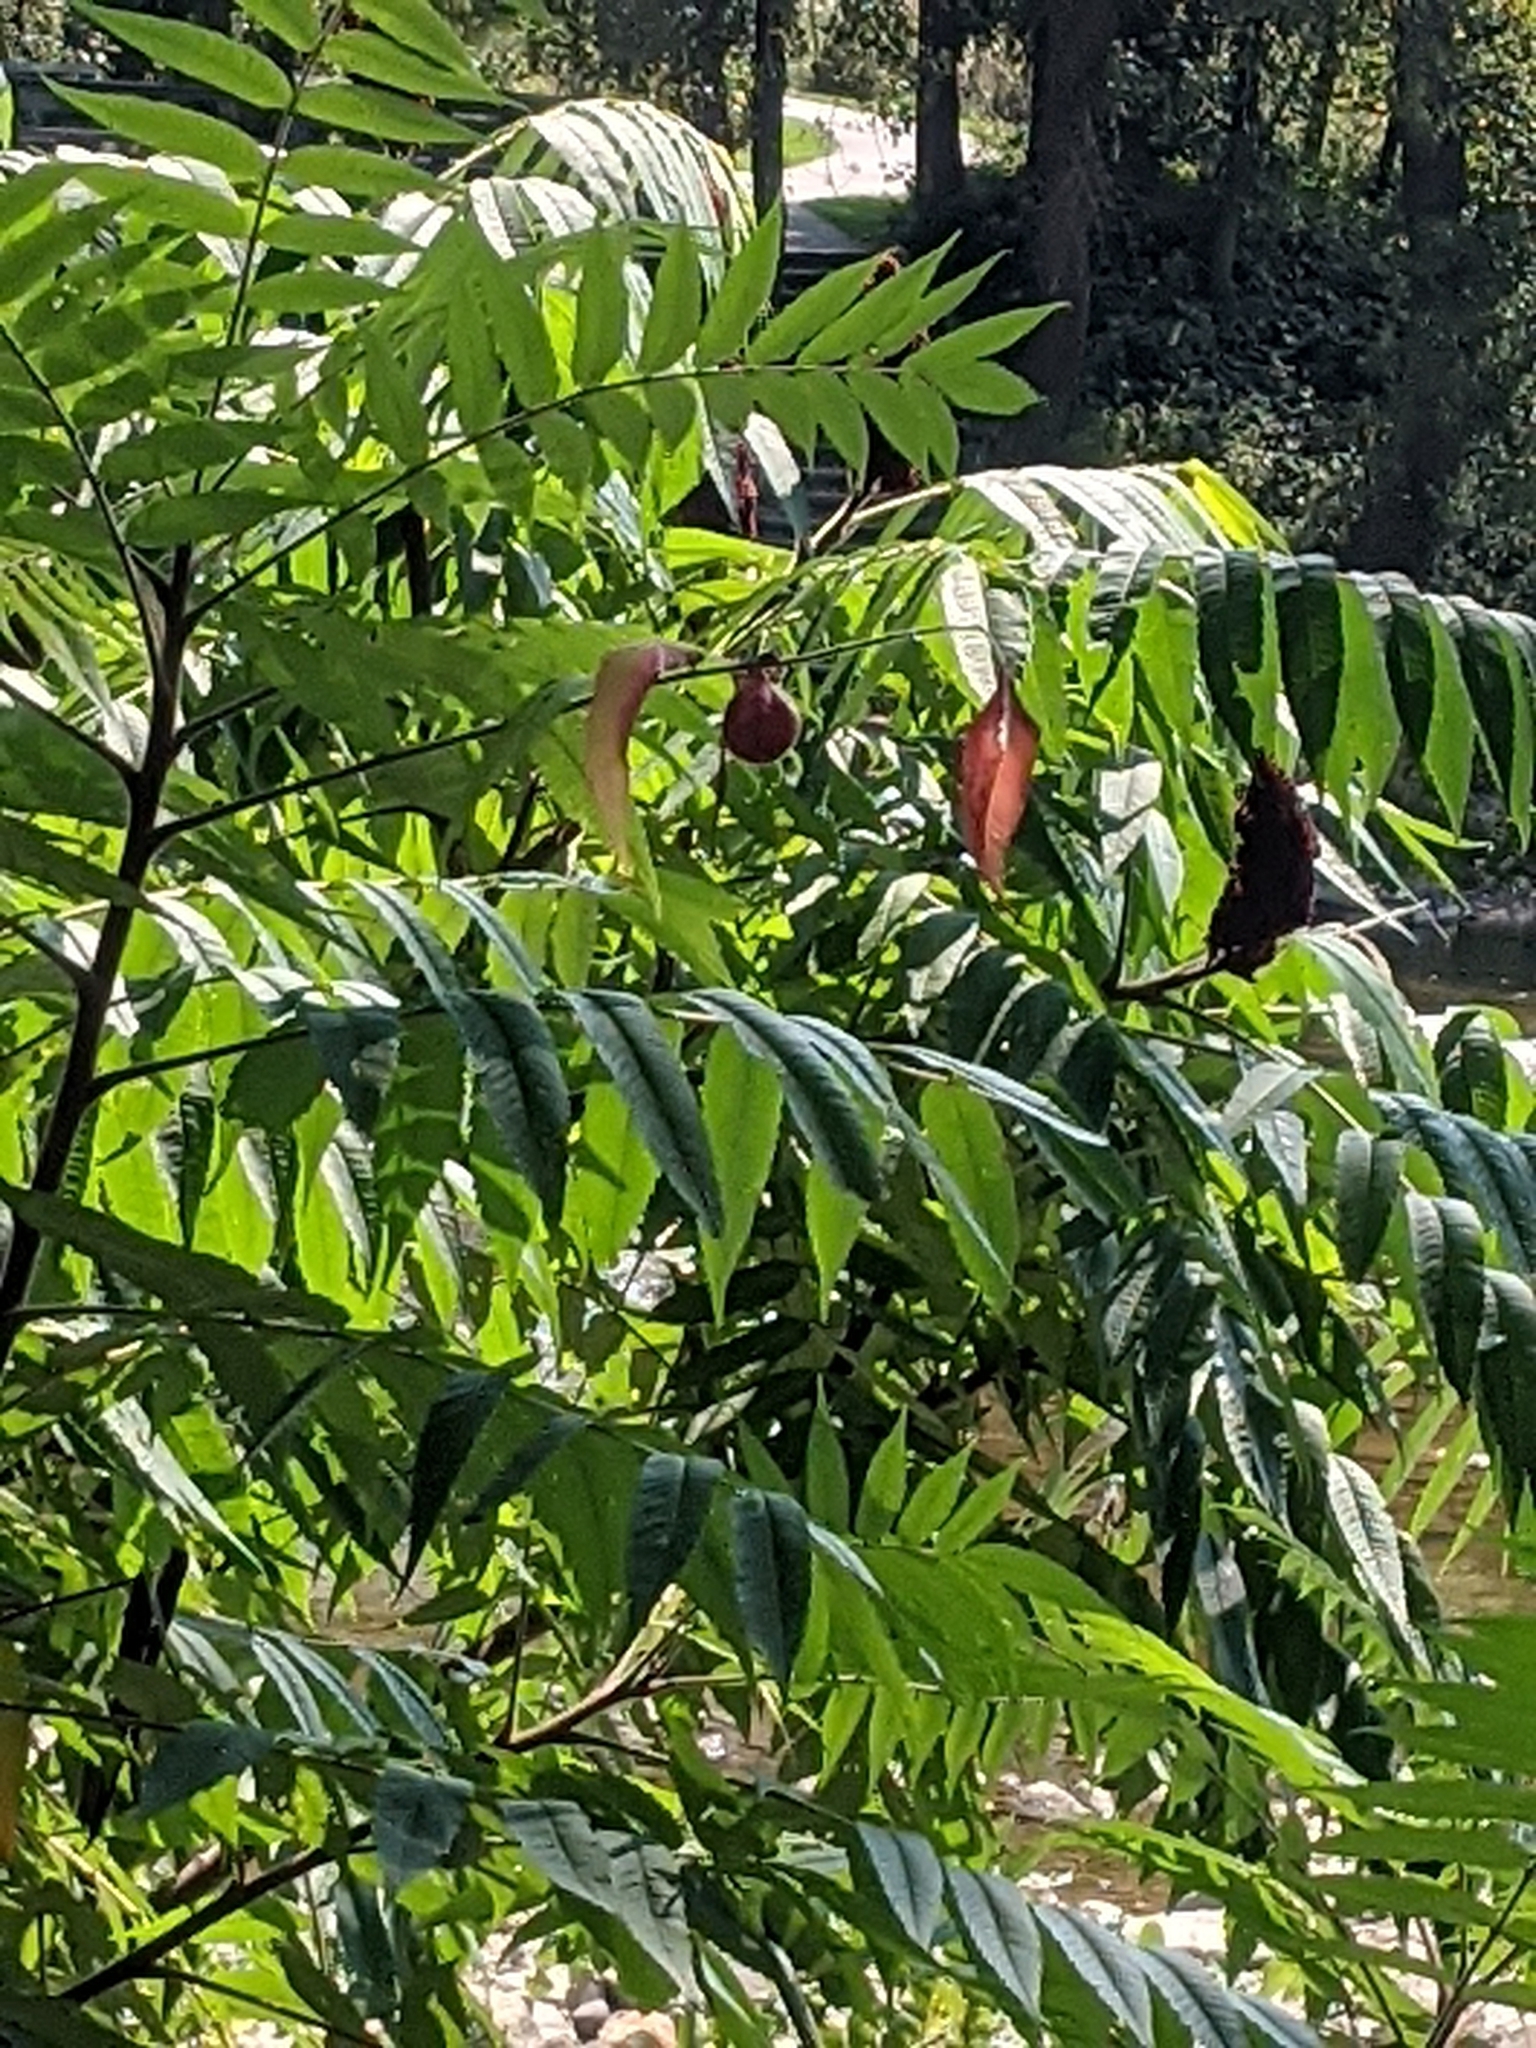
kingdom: Animalia
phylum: Arthropoda
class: Insecta
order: Hemiptera
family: Aphididae
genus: Melaphis
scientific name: Melaphis rhois
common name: Sumac gall aphid
